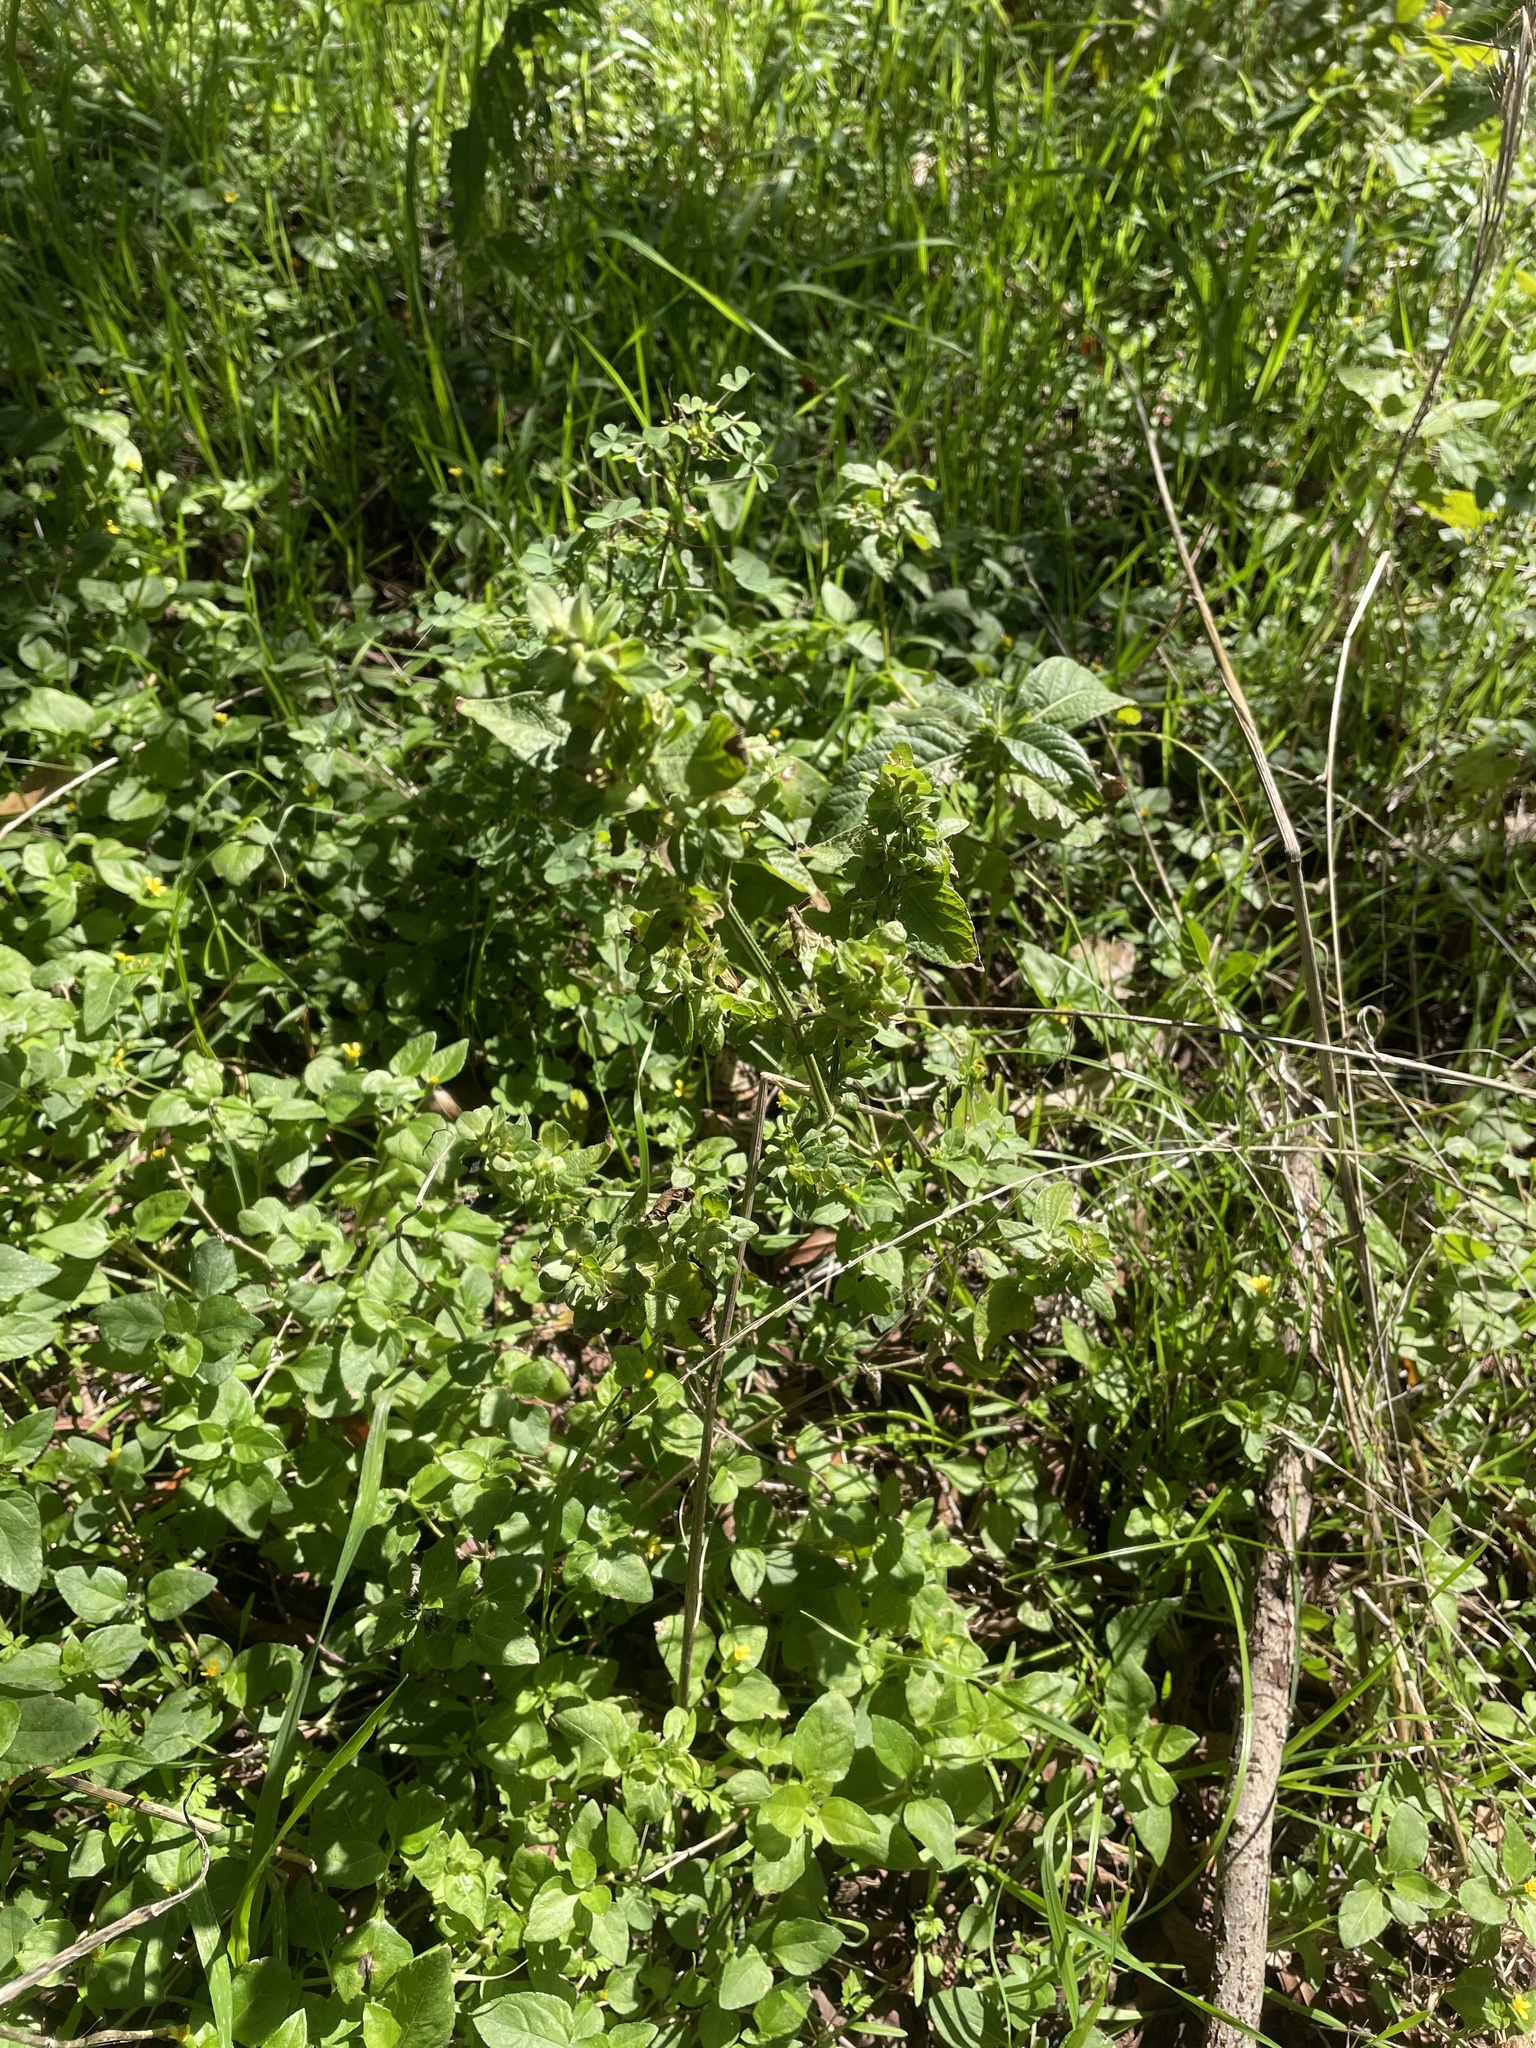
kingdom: Plantae
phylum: Tracheophyta
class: Magnoliopsida
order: Lamiales
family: Acanthaceae
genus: Dicliptera
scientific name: Dicliptera brachiata
